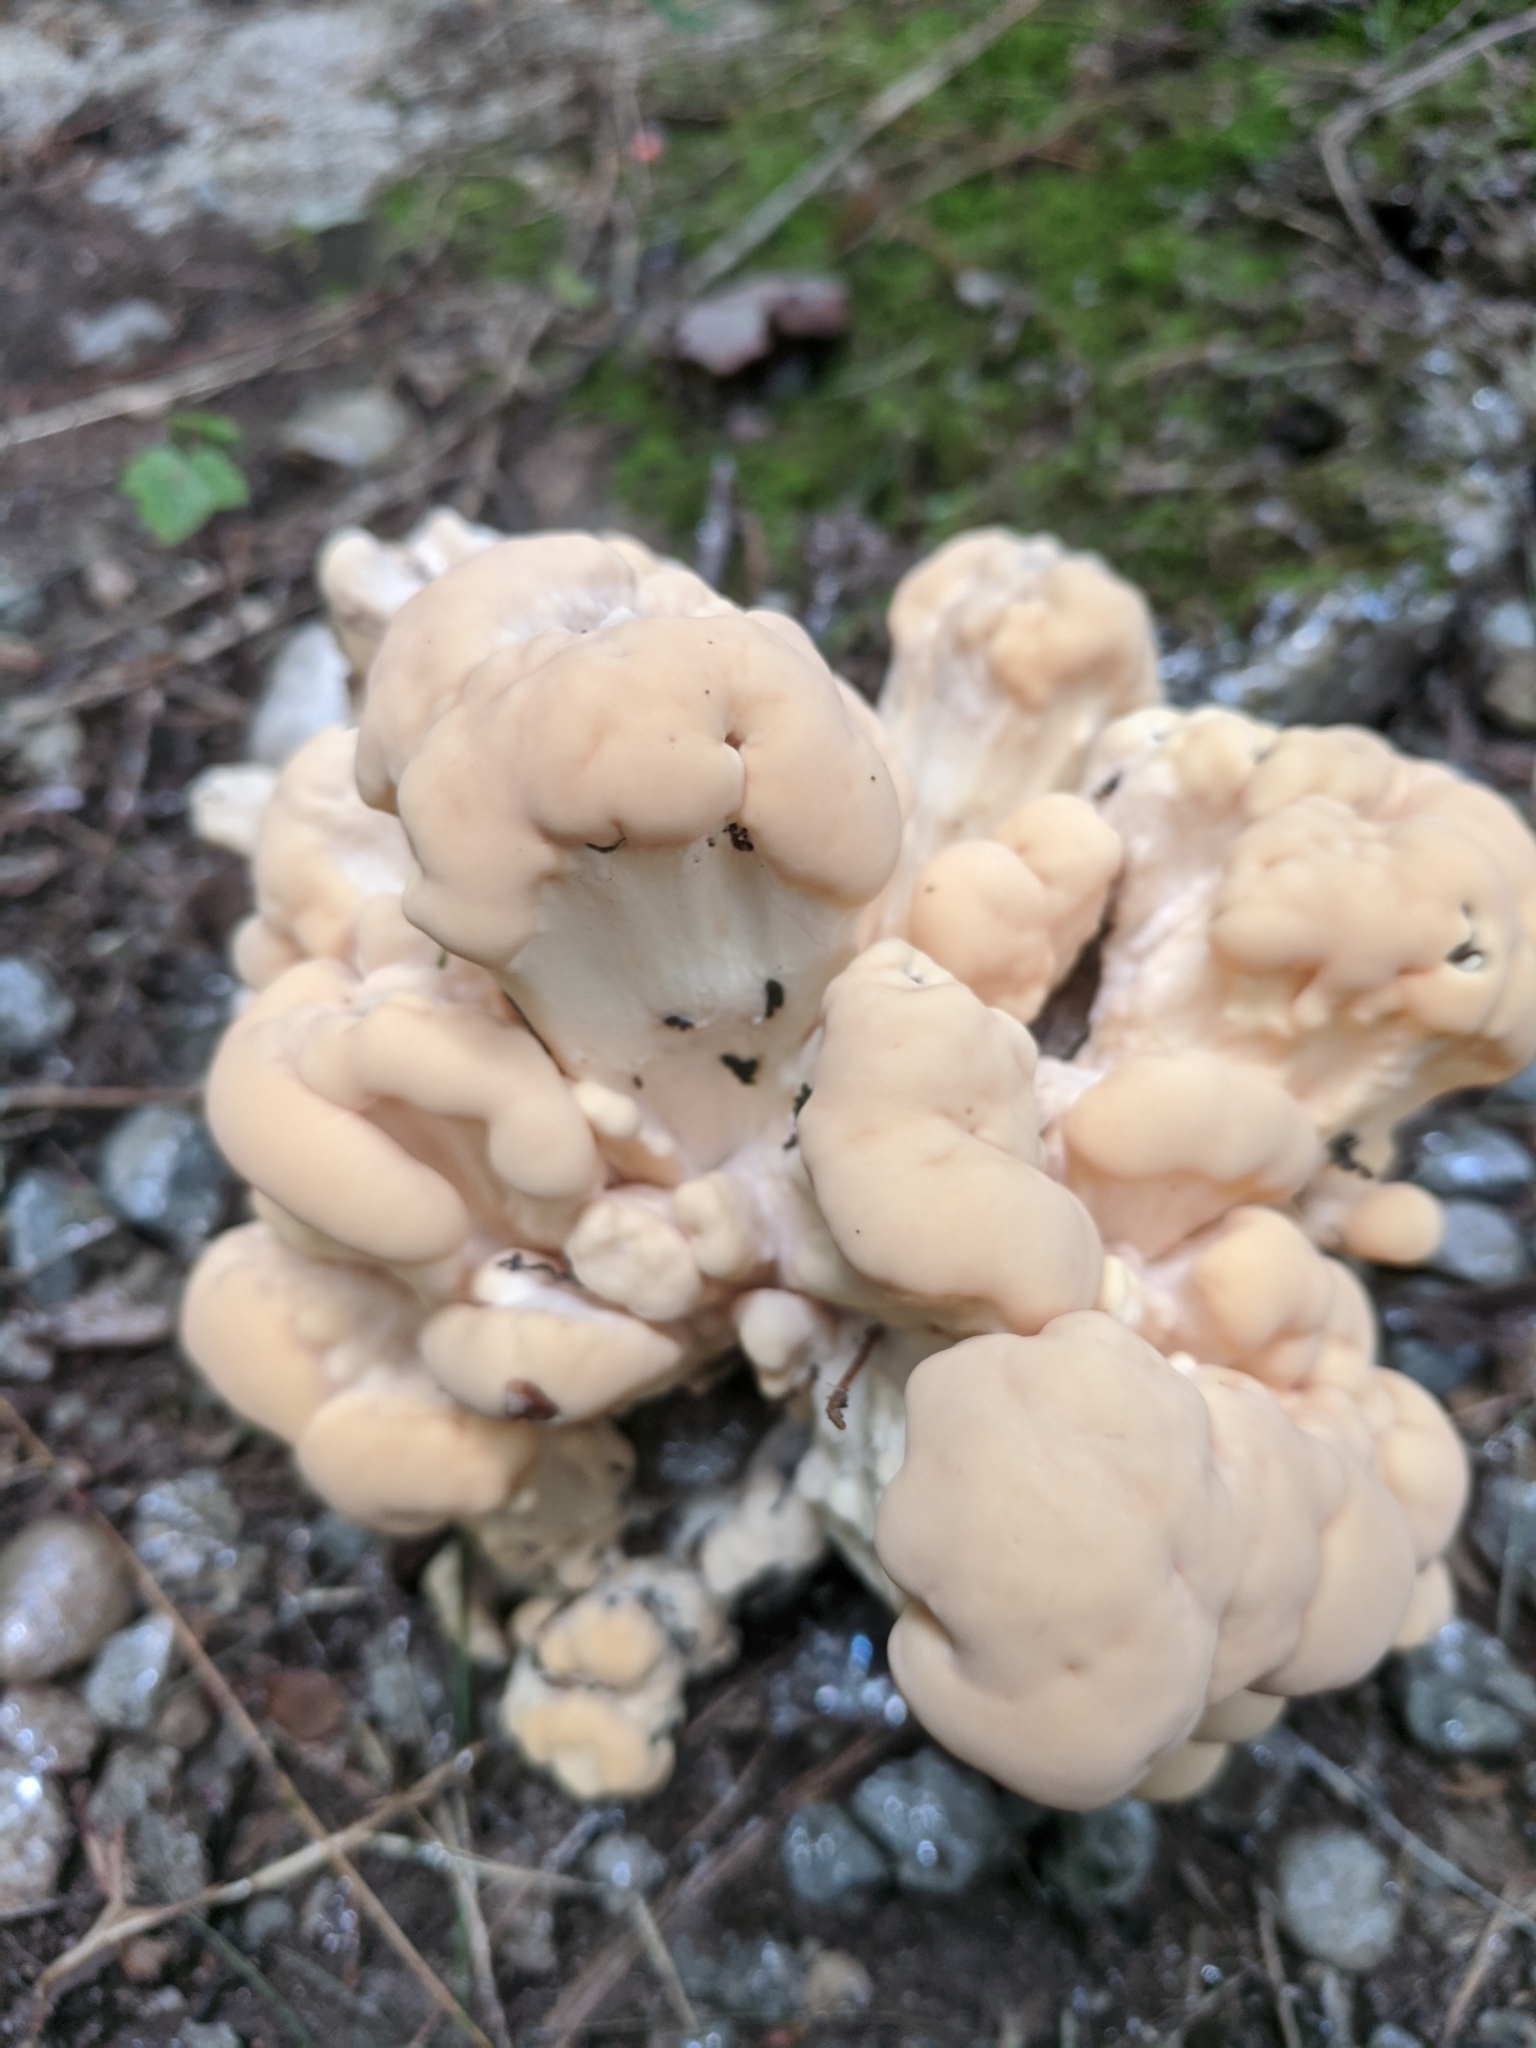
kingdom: Fungi
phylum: Basidiomycota
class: Agaricomycetes
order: Polyporales
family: Meripilaceae
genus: Meripilus
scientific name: Meripilus sumstinei
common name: Black-staining polypore
